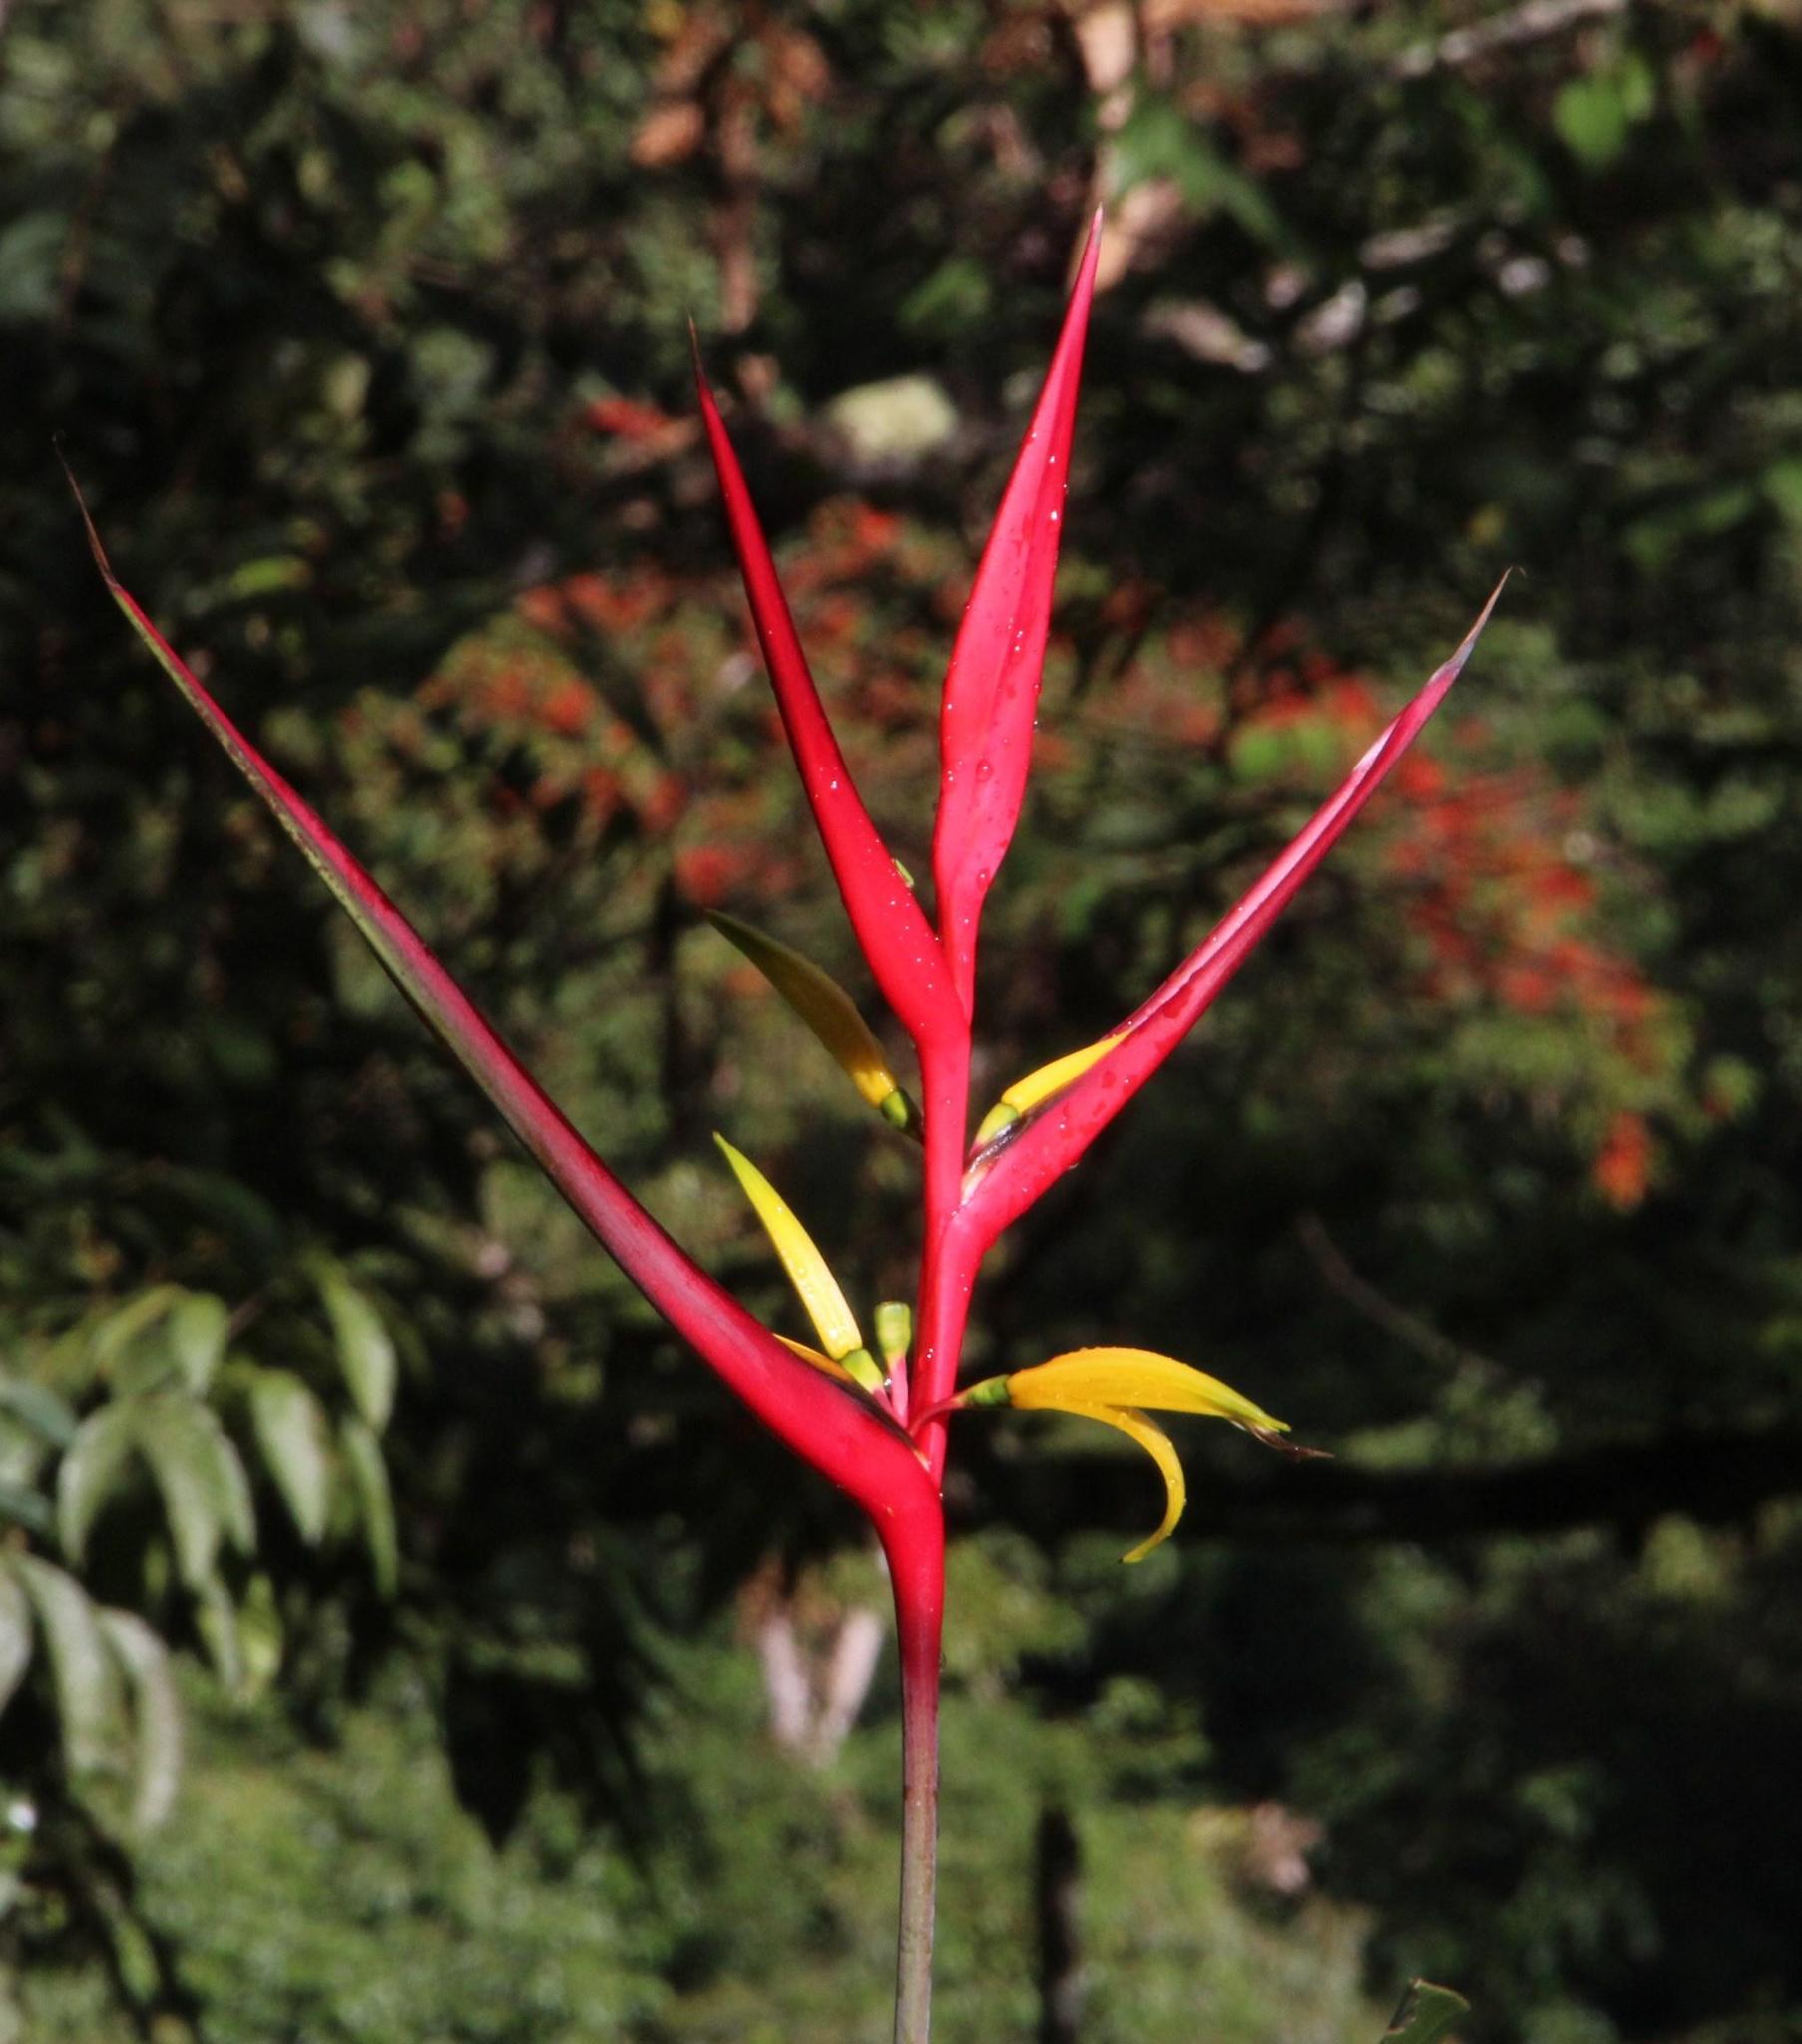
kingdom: Plantae
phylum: Tracheophyta
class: Liliopsida
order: Zingiberales
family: Heliconiaceae
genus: Heliconia
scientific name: Heliconia subulata
